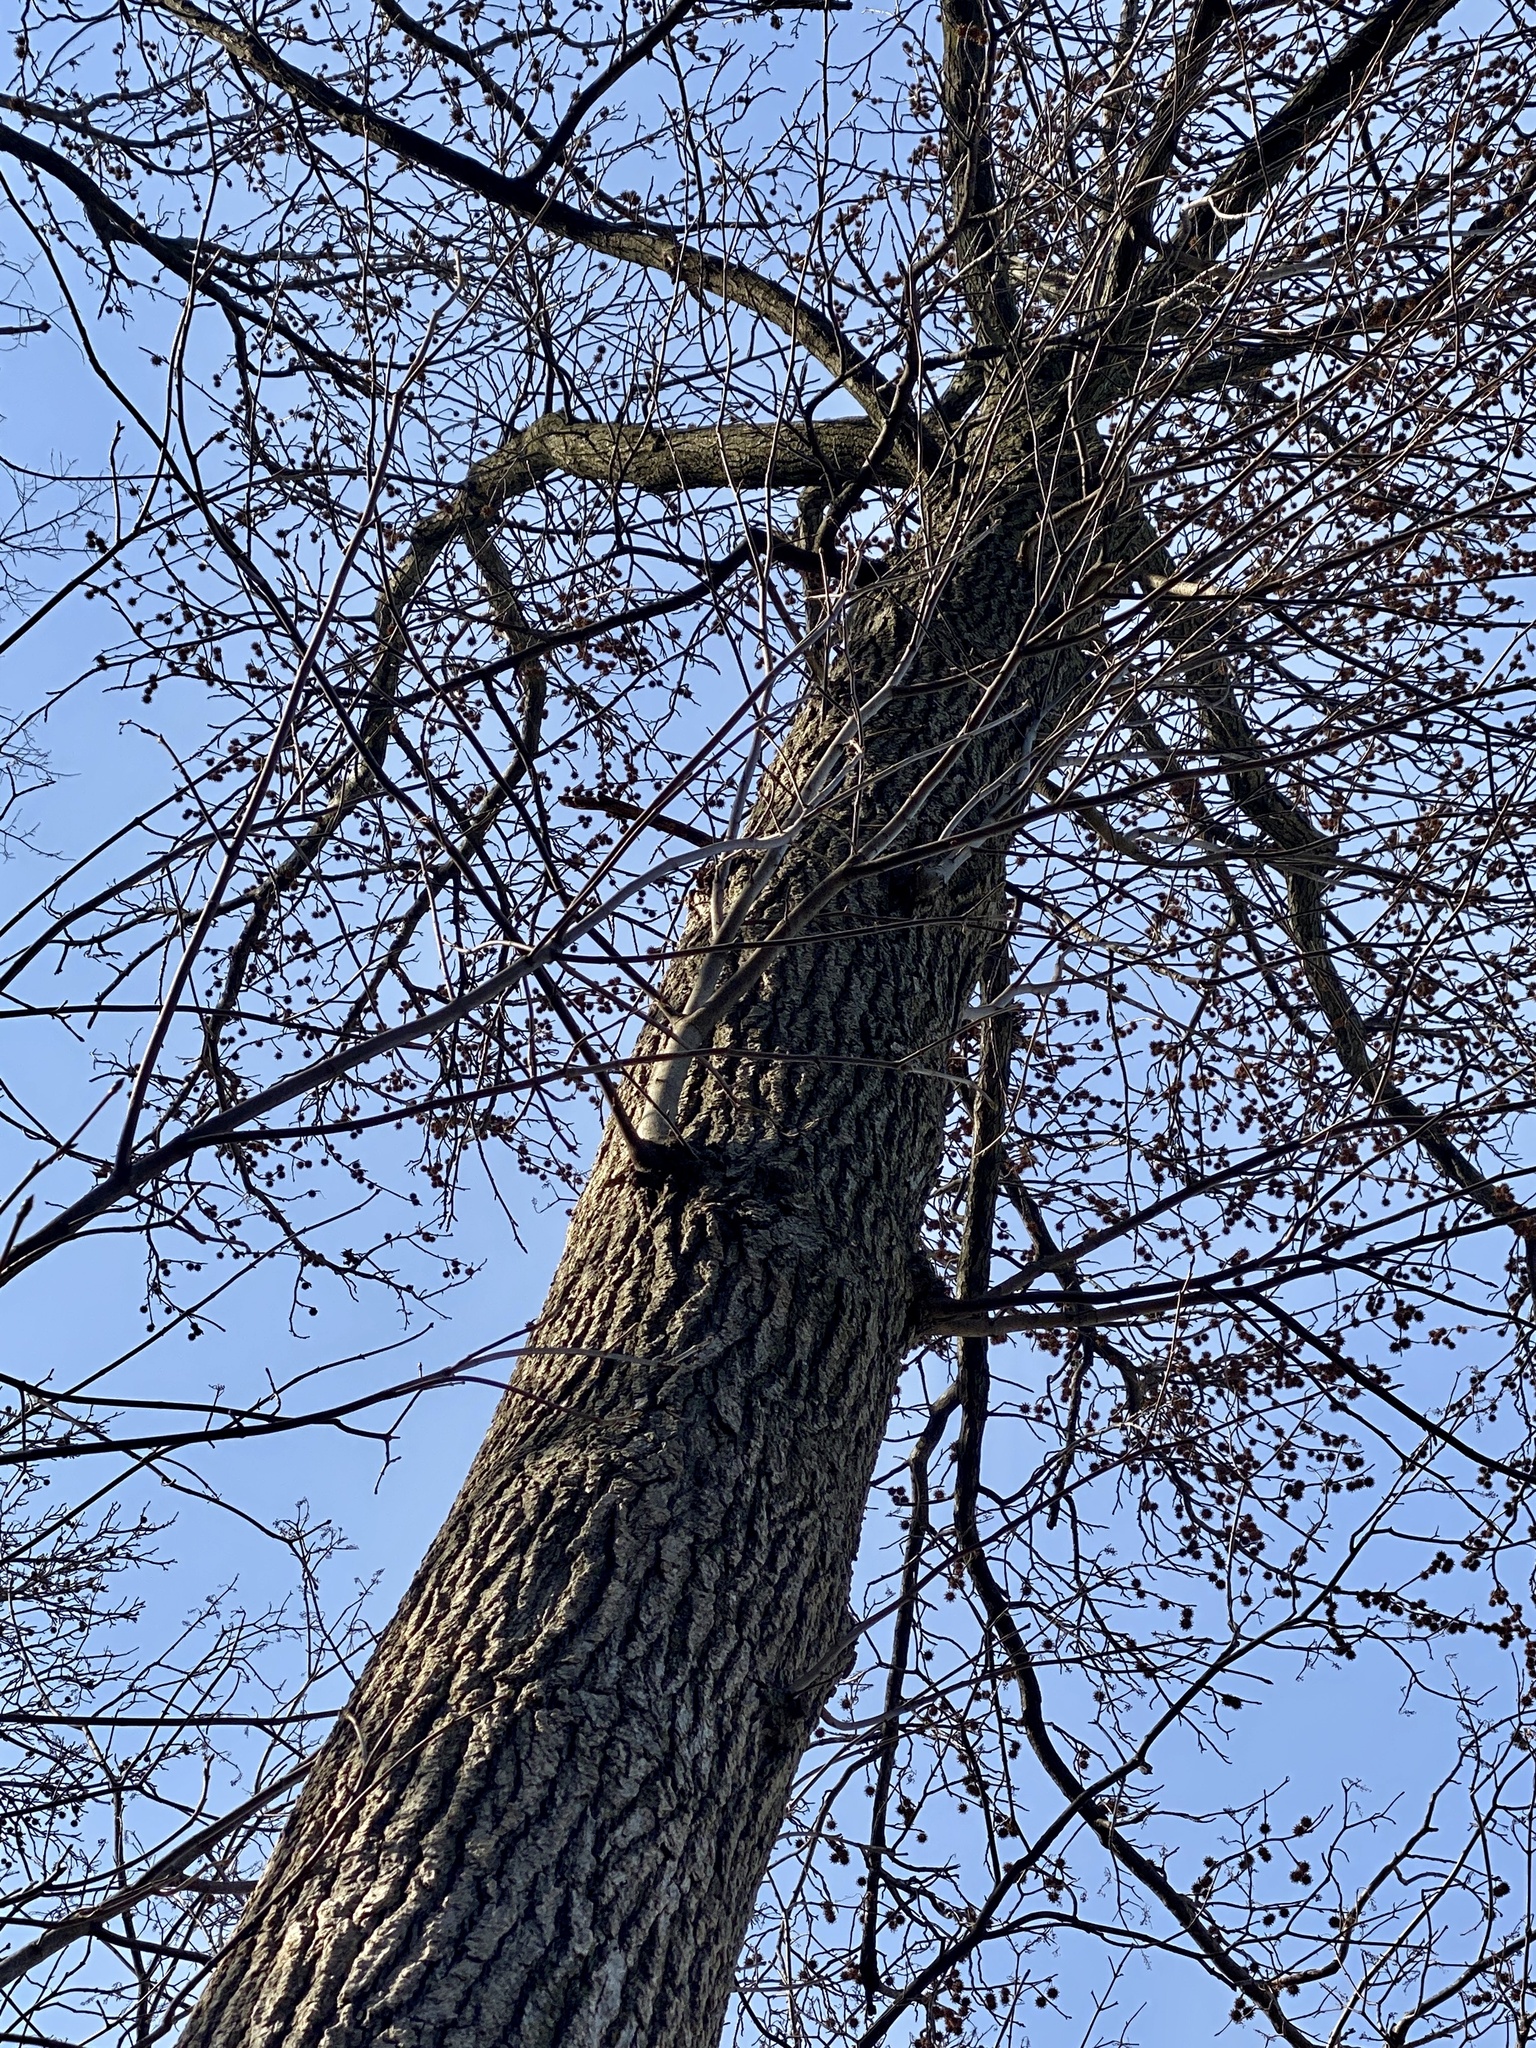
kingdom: Plantae
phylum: Tracheophyta
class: Magnoliopsida
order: Saxifragales
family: Altingiaceae
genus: Liquidambar
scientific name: Liquidambar styraciflua
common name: Sweet gum
